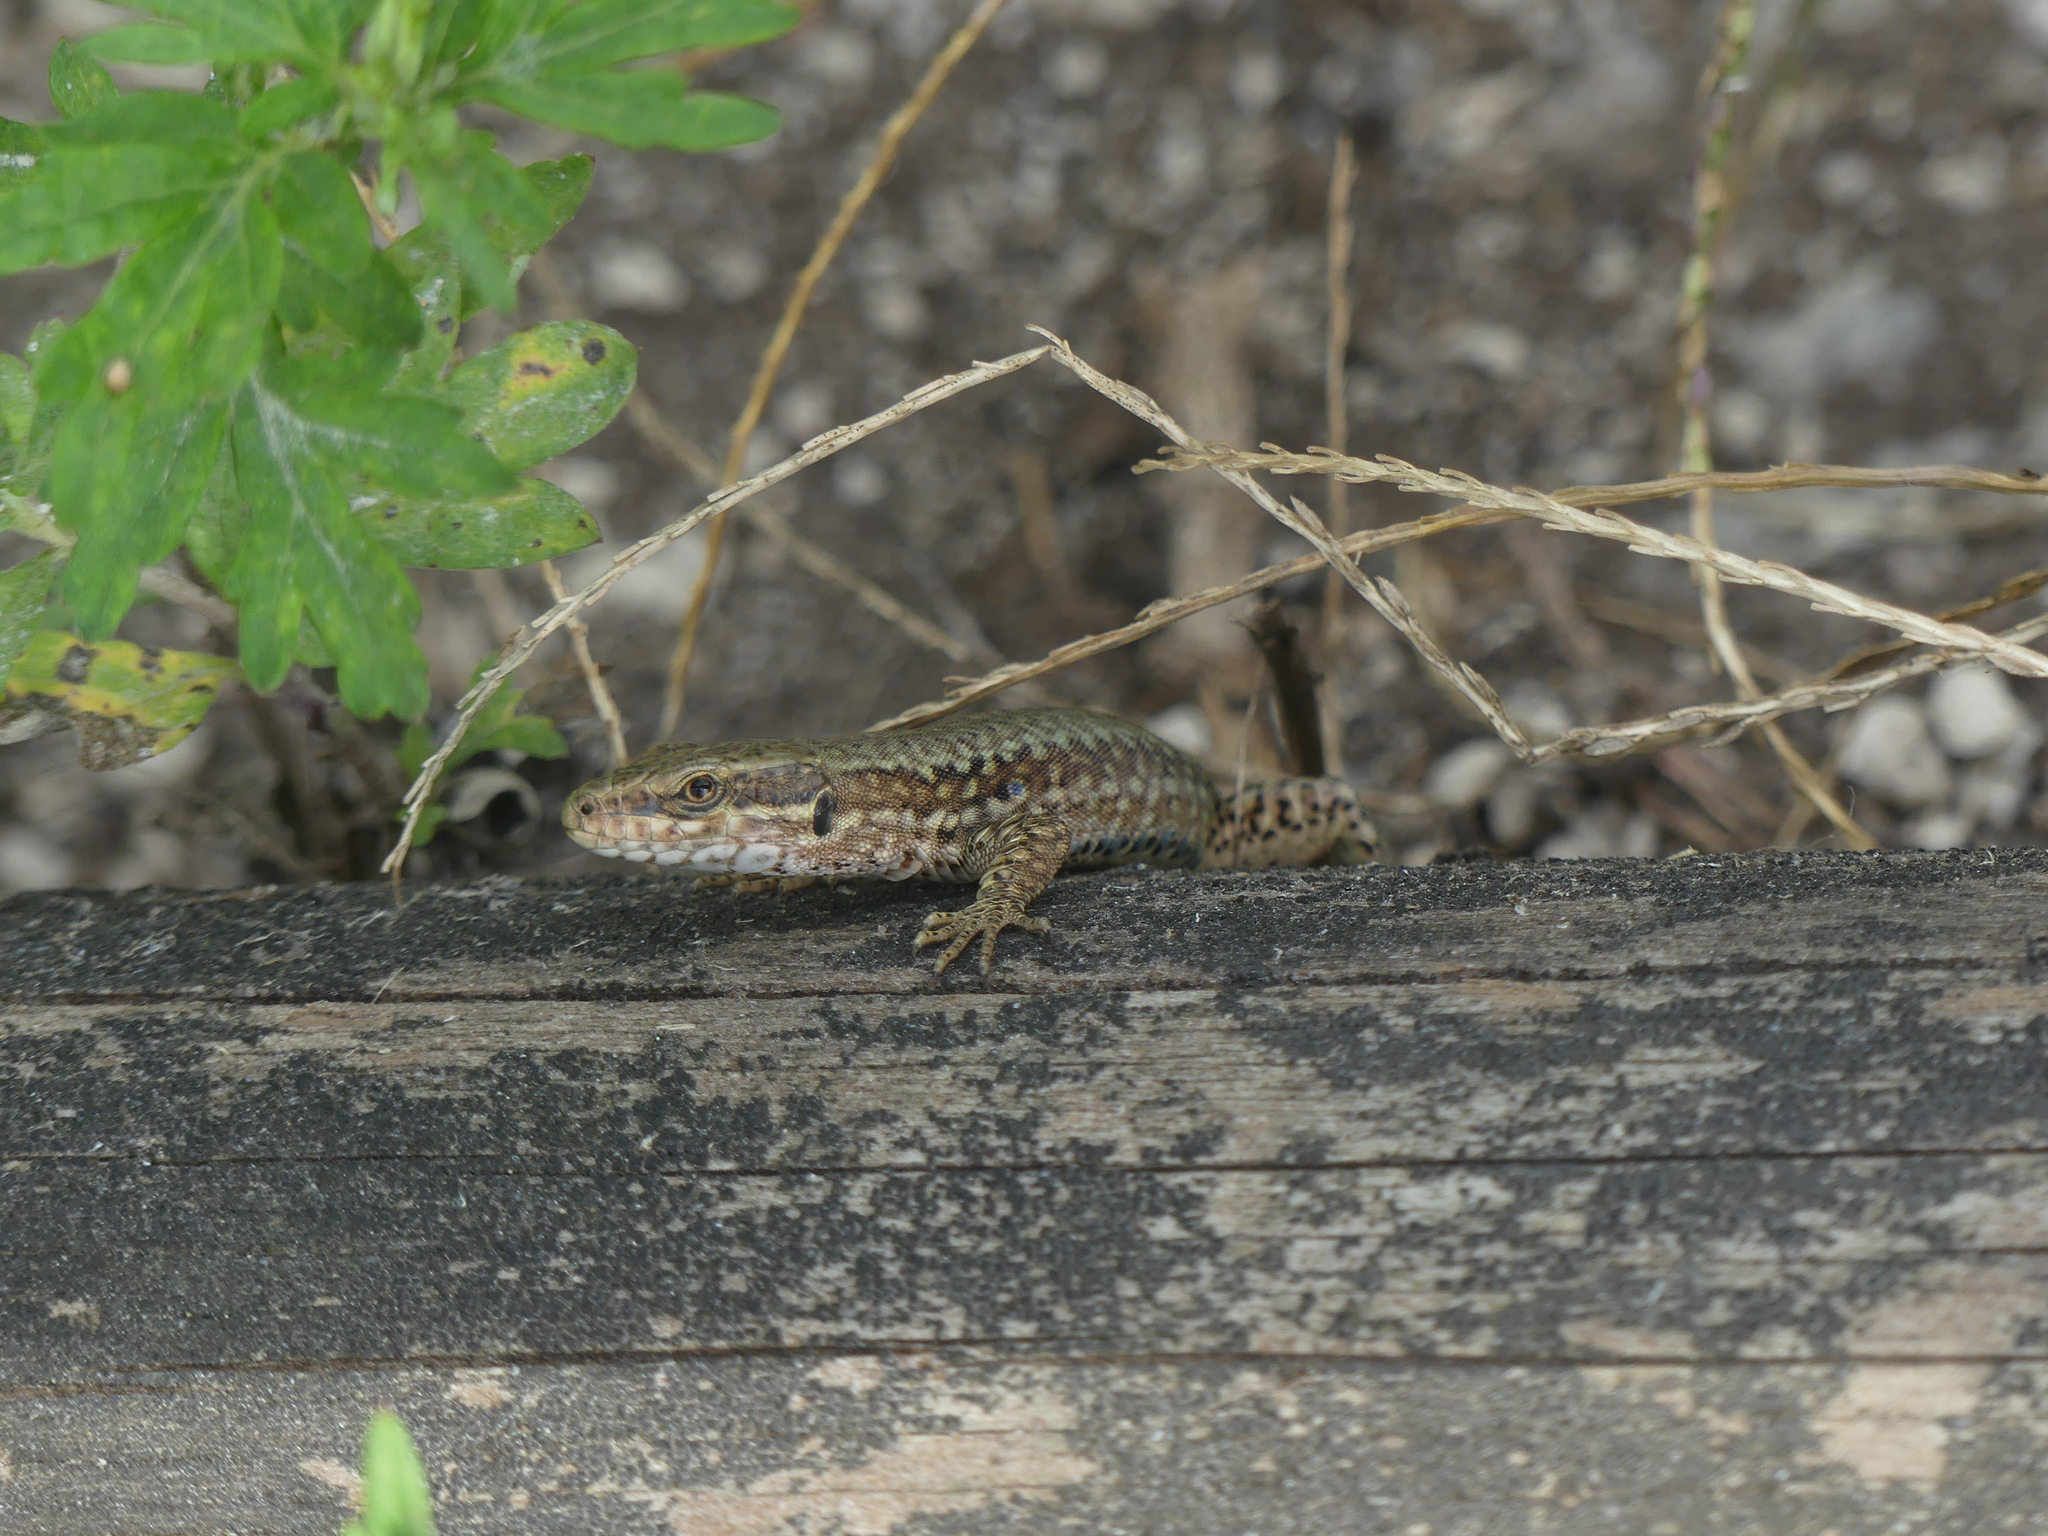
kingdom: Animalia
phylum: Chordata
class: Squamata
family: Lacertidae
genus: Podarcis
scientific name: Podarcis muralis
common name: Common wall lizard
